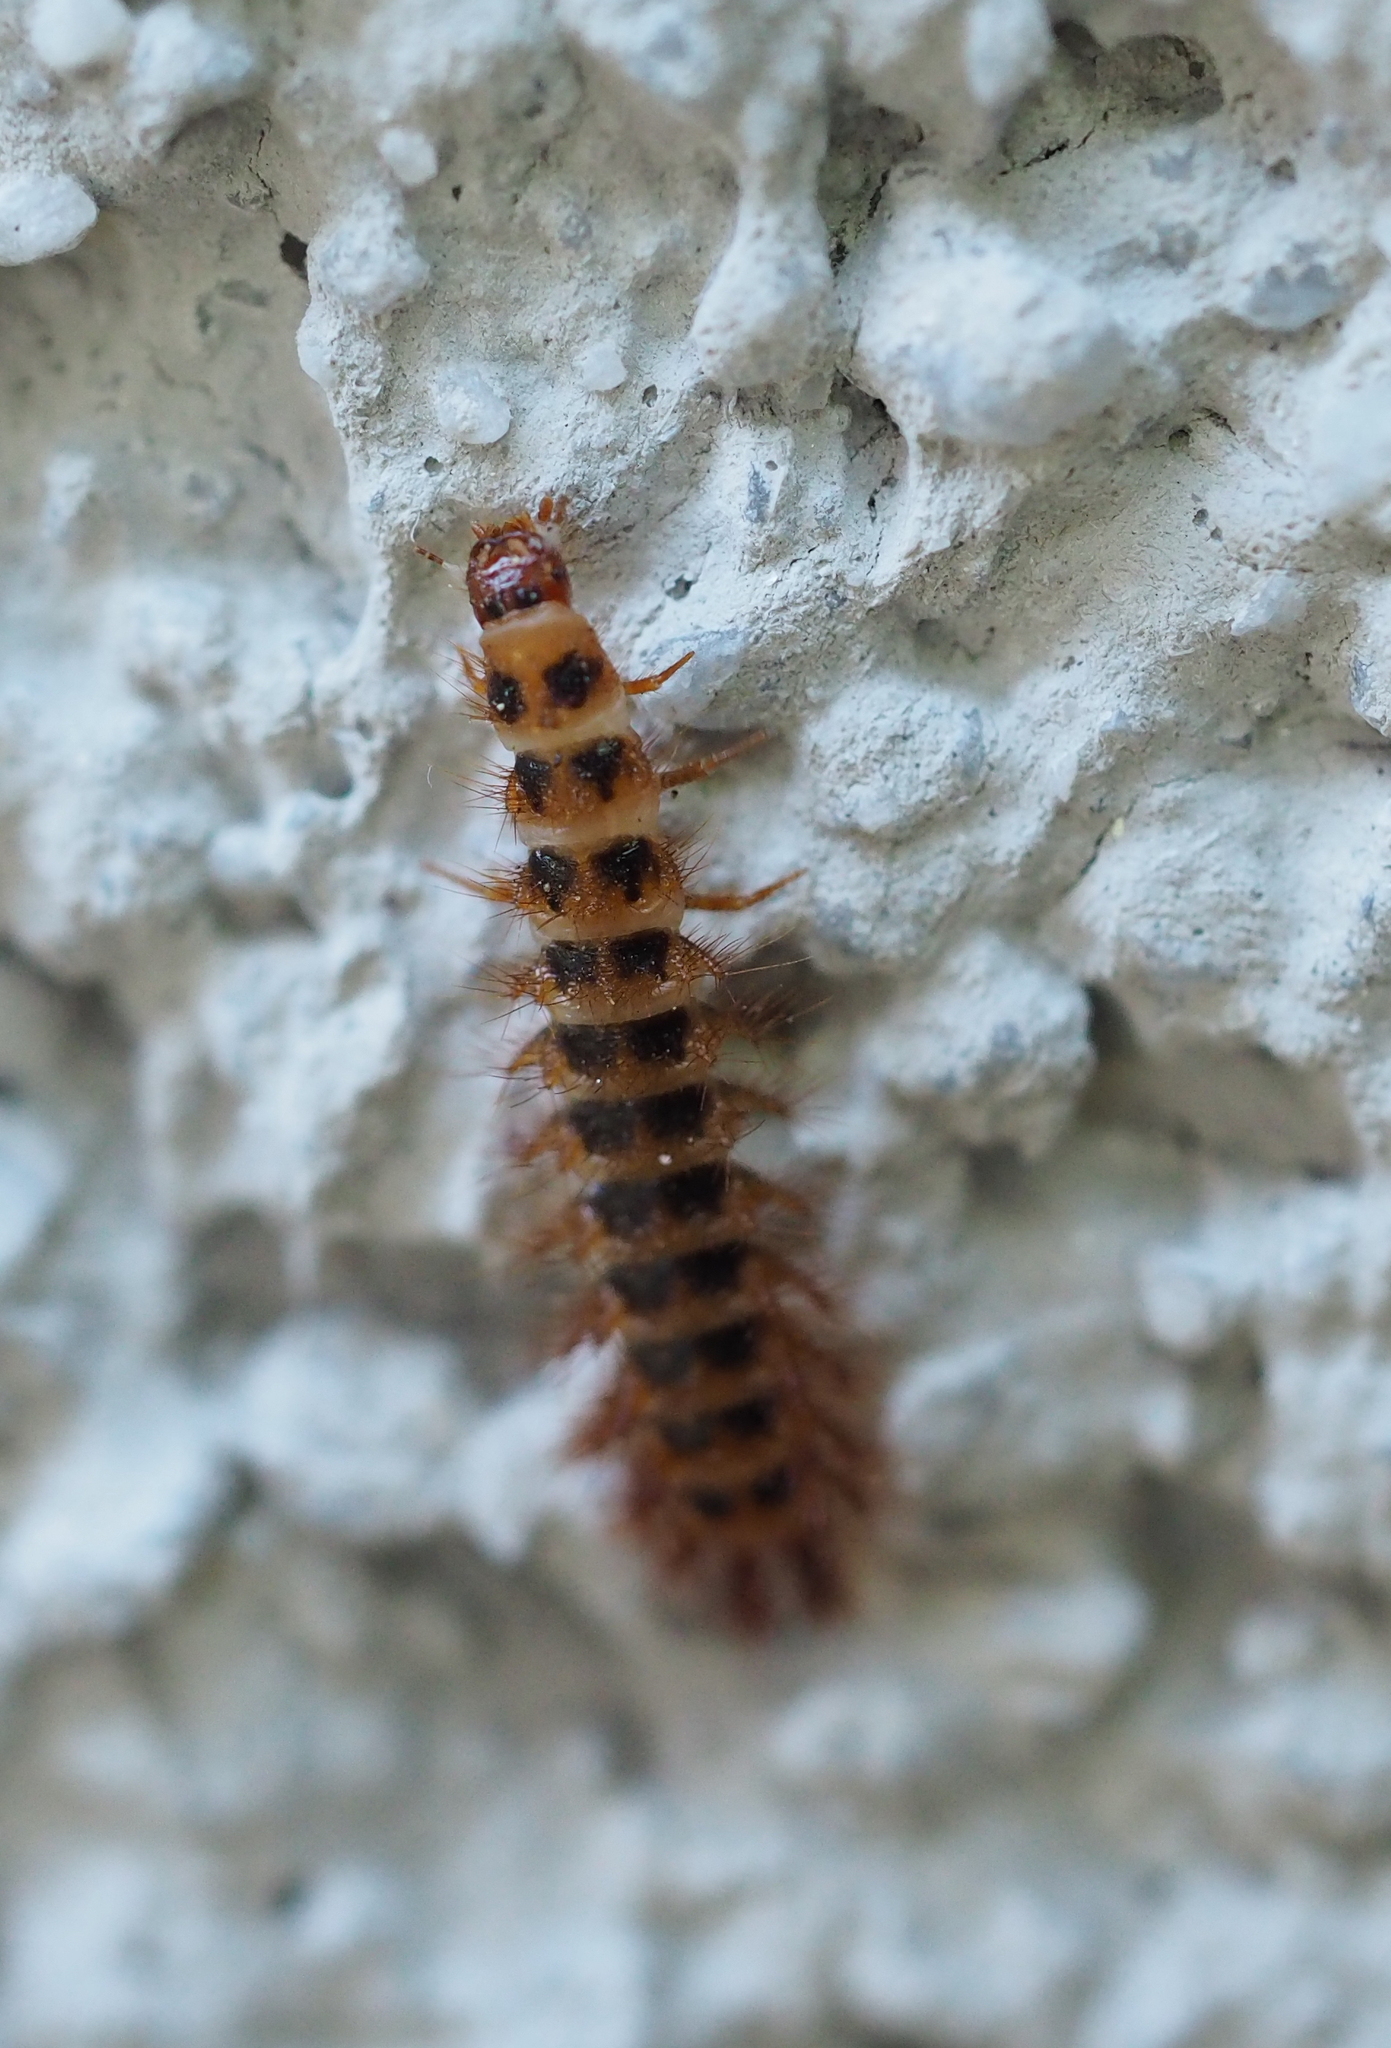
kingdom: Animalia
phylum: Arthropoda
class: Insecta
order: Coleoptera
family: Drilidae
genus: Drilus
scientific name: Drilus concolor
